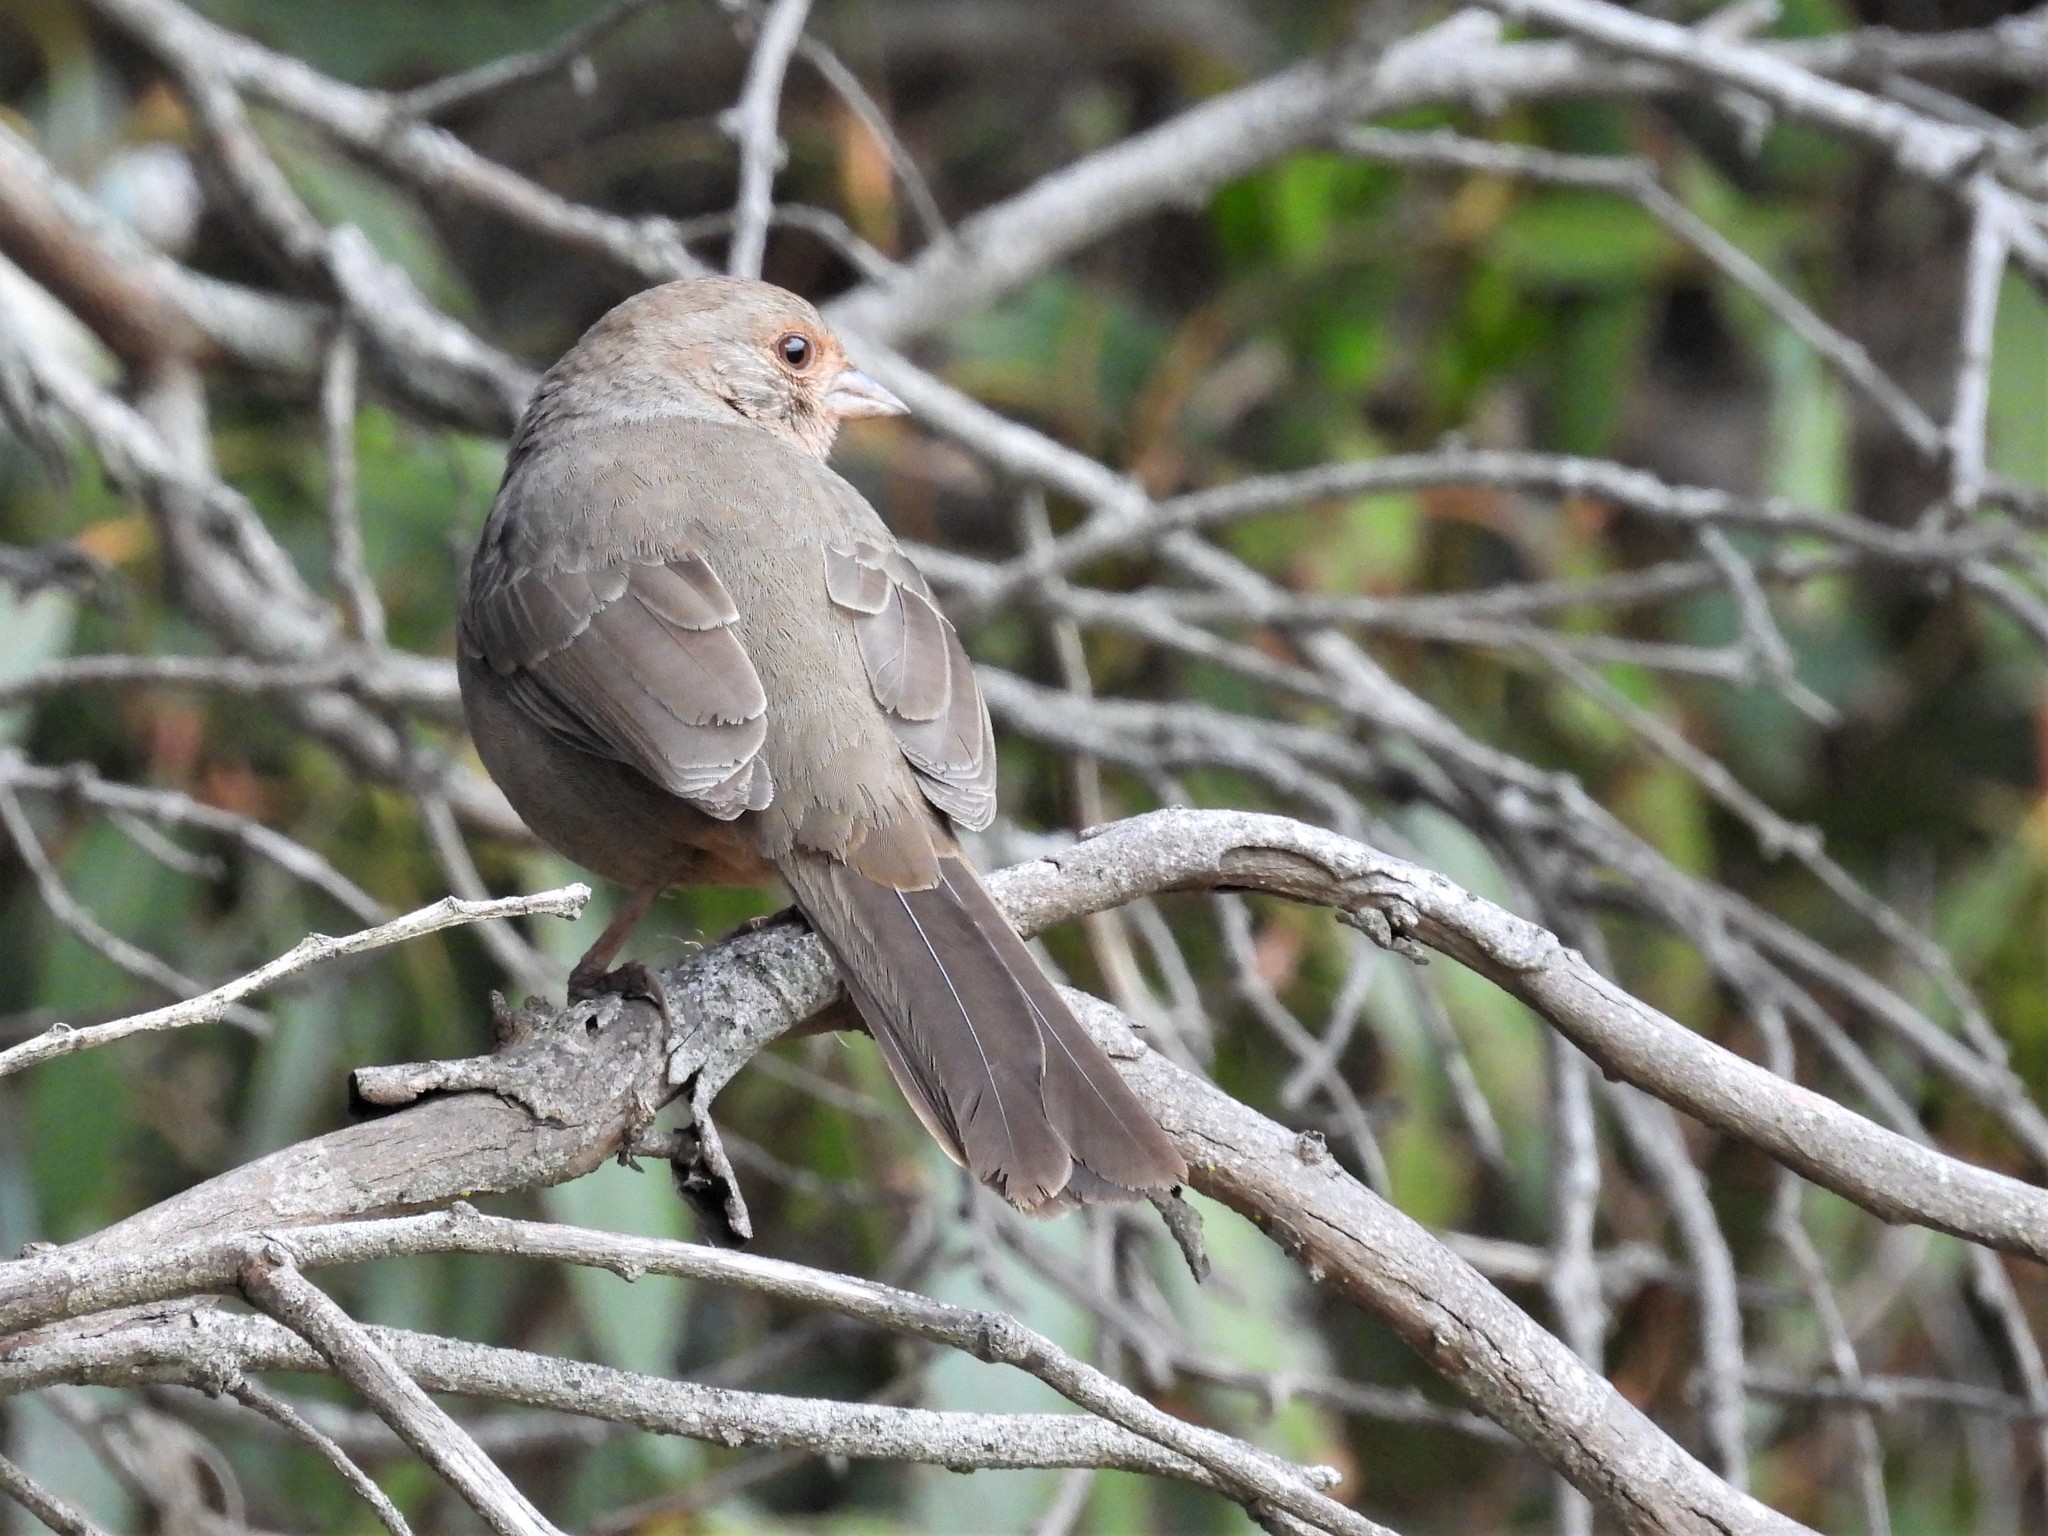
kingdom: Animalia
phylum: Chordata
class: Aves
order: Passeriformes
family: Passerellidae
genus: Melozone
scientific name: Melozone crissalis
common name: California towhee
